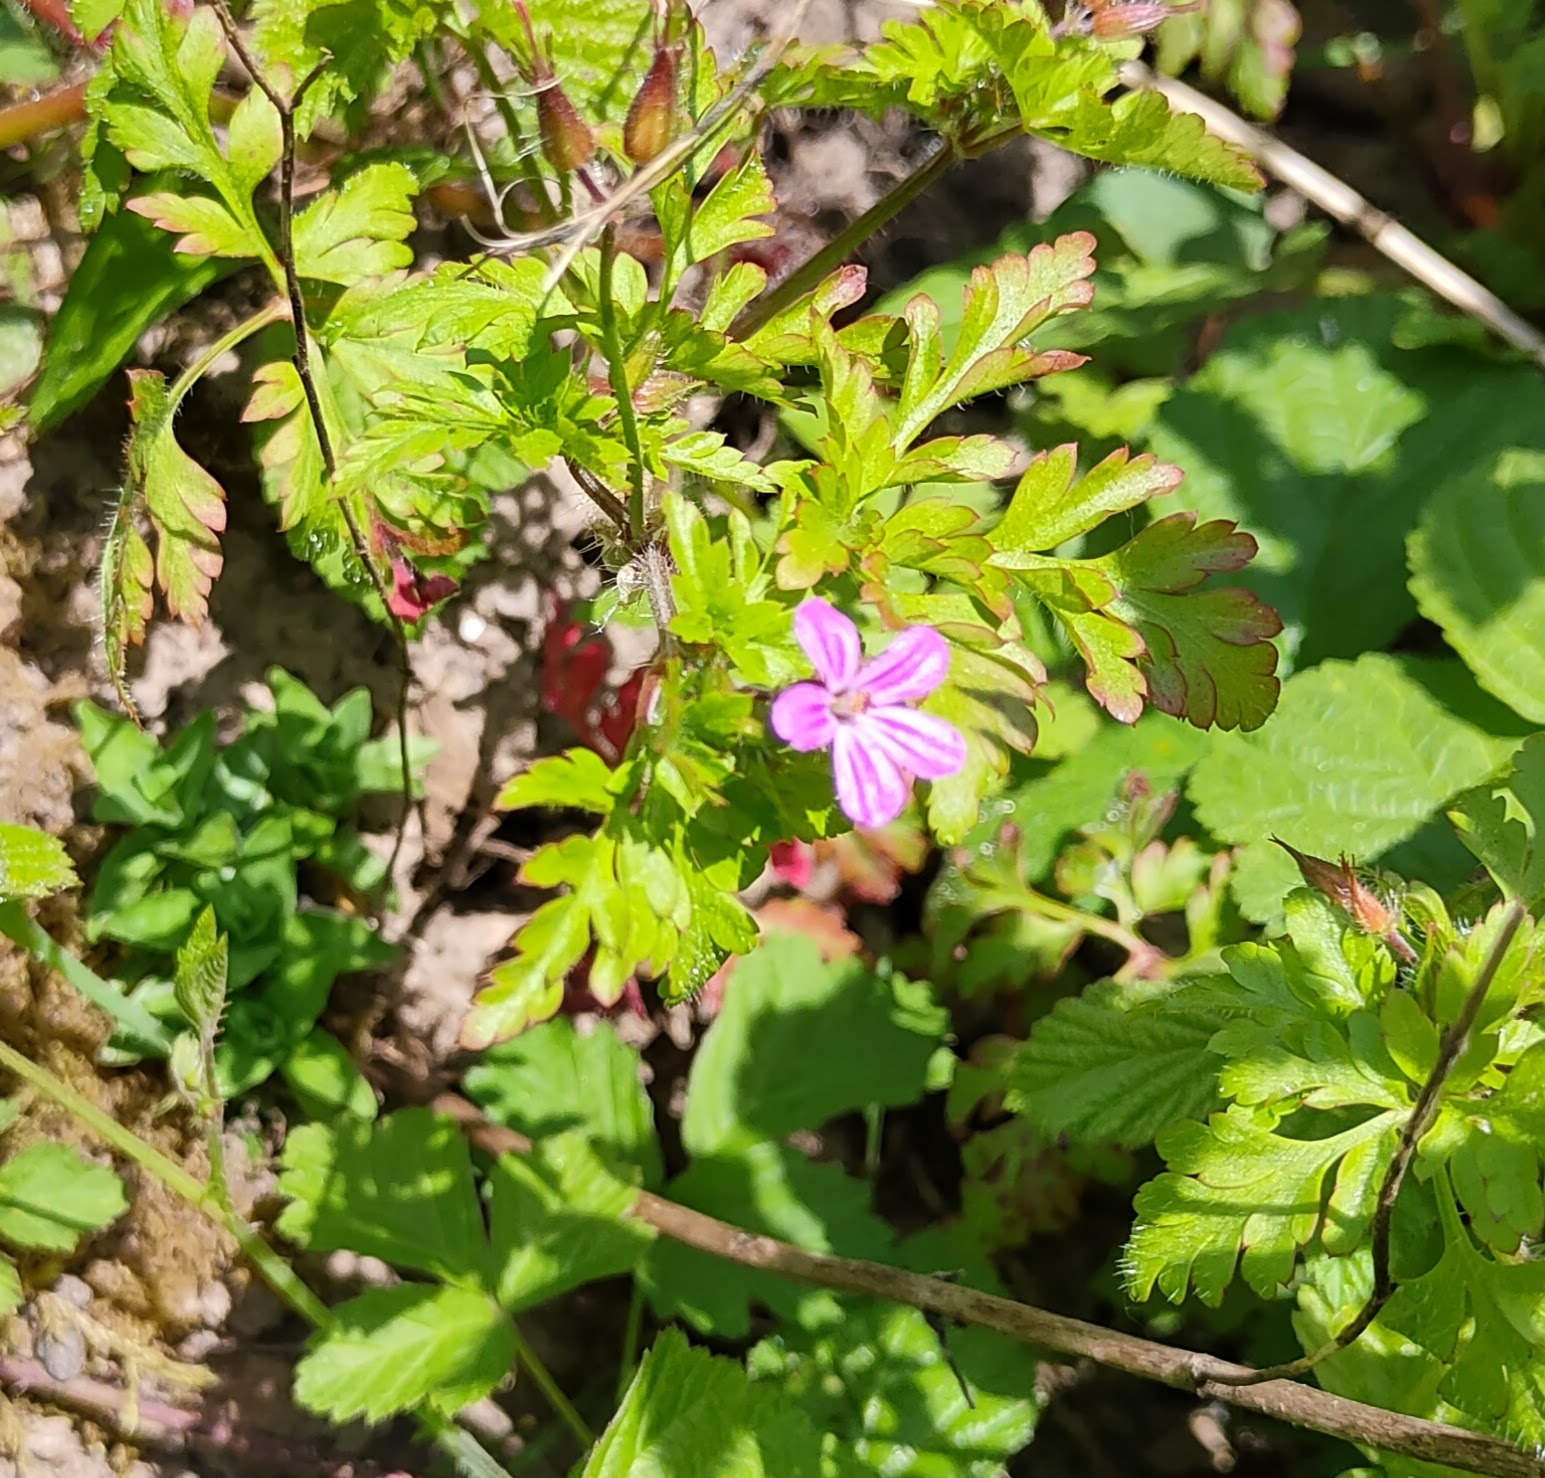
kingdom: Plantae
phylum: Tracheophyta
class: Magnoliopsida
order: Geraniales
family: Geraniaceae
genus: Geranium
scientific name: Geranium robertianum
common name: Herb-robert
